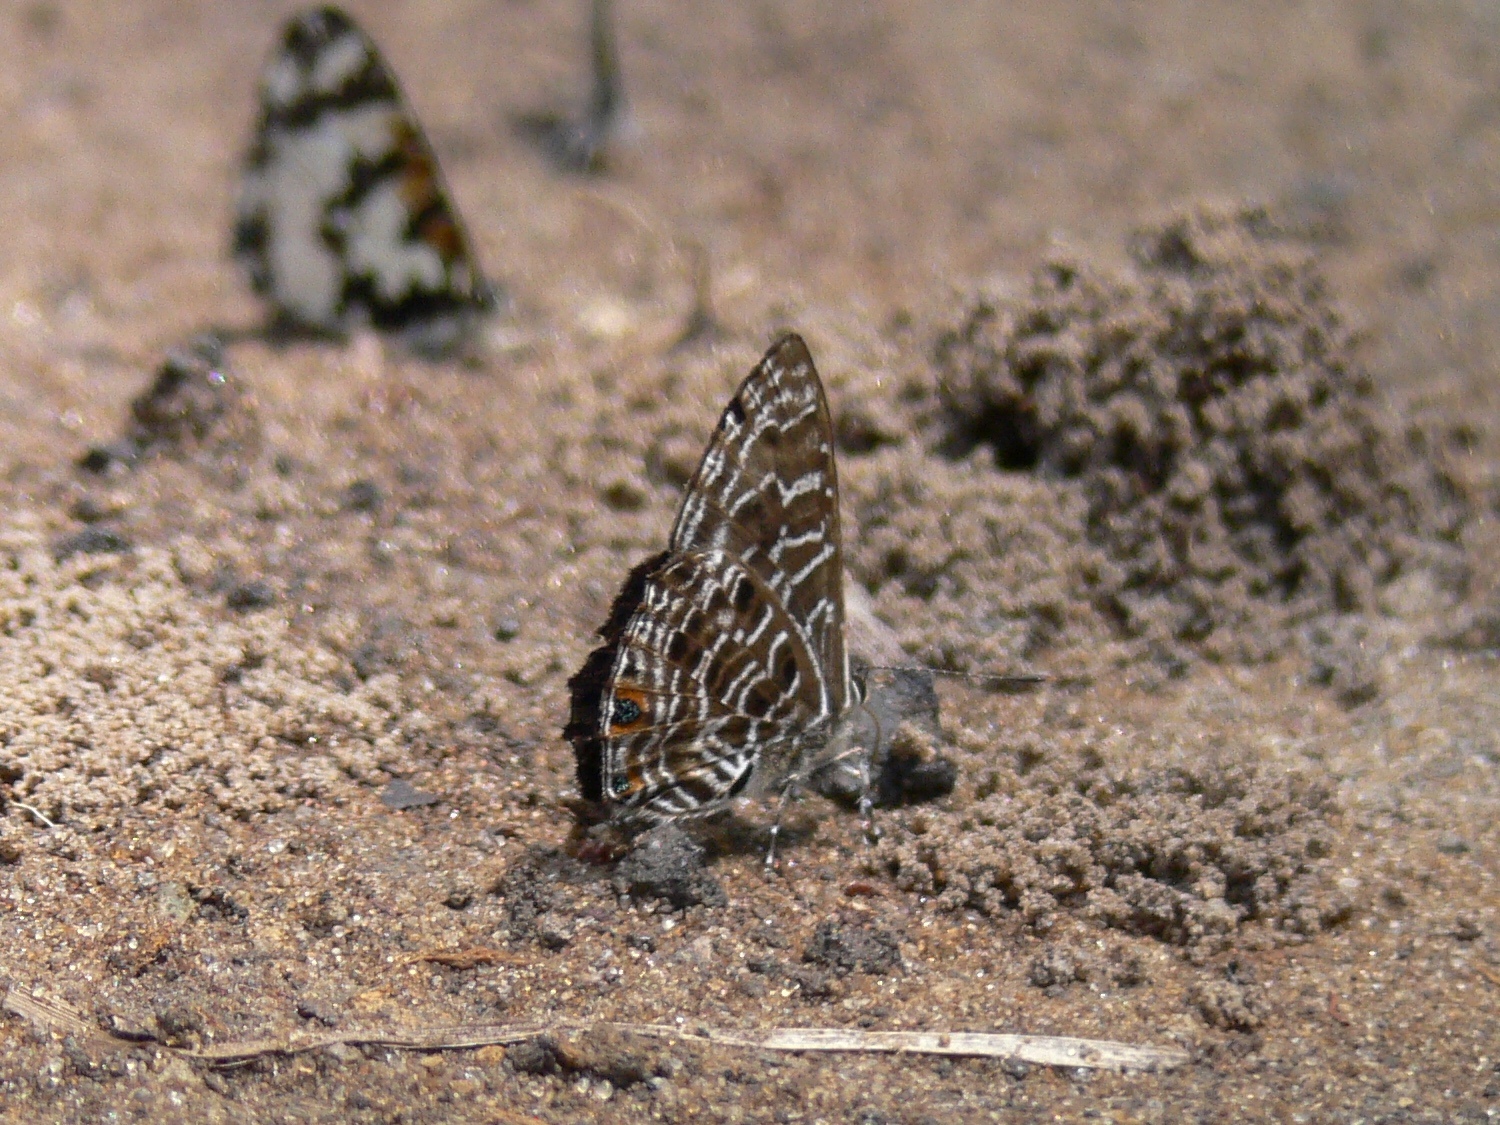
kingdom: Animalia
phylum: Arthropoda
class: Insecta
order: Lepidoptera
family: Lycaenidae
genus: Anthene
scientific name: Anthene larydas
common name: Forest hairtail
